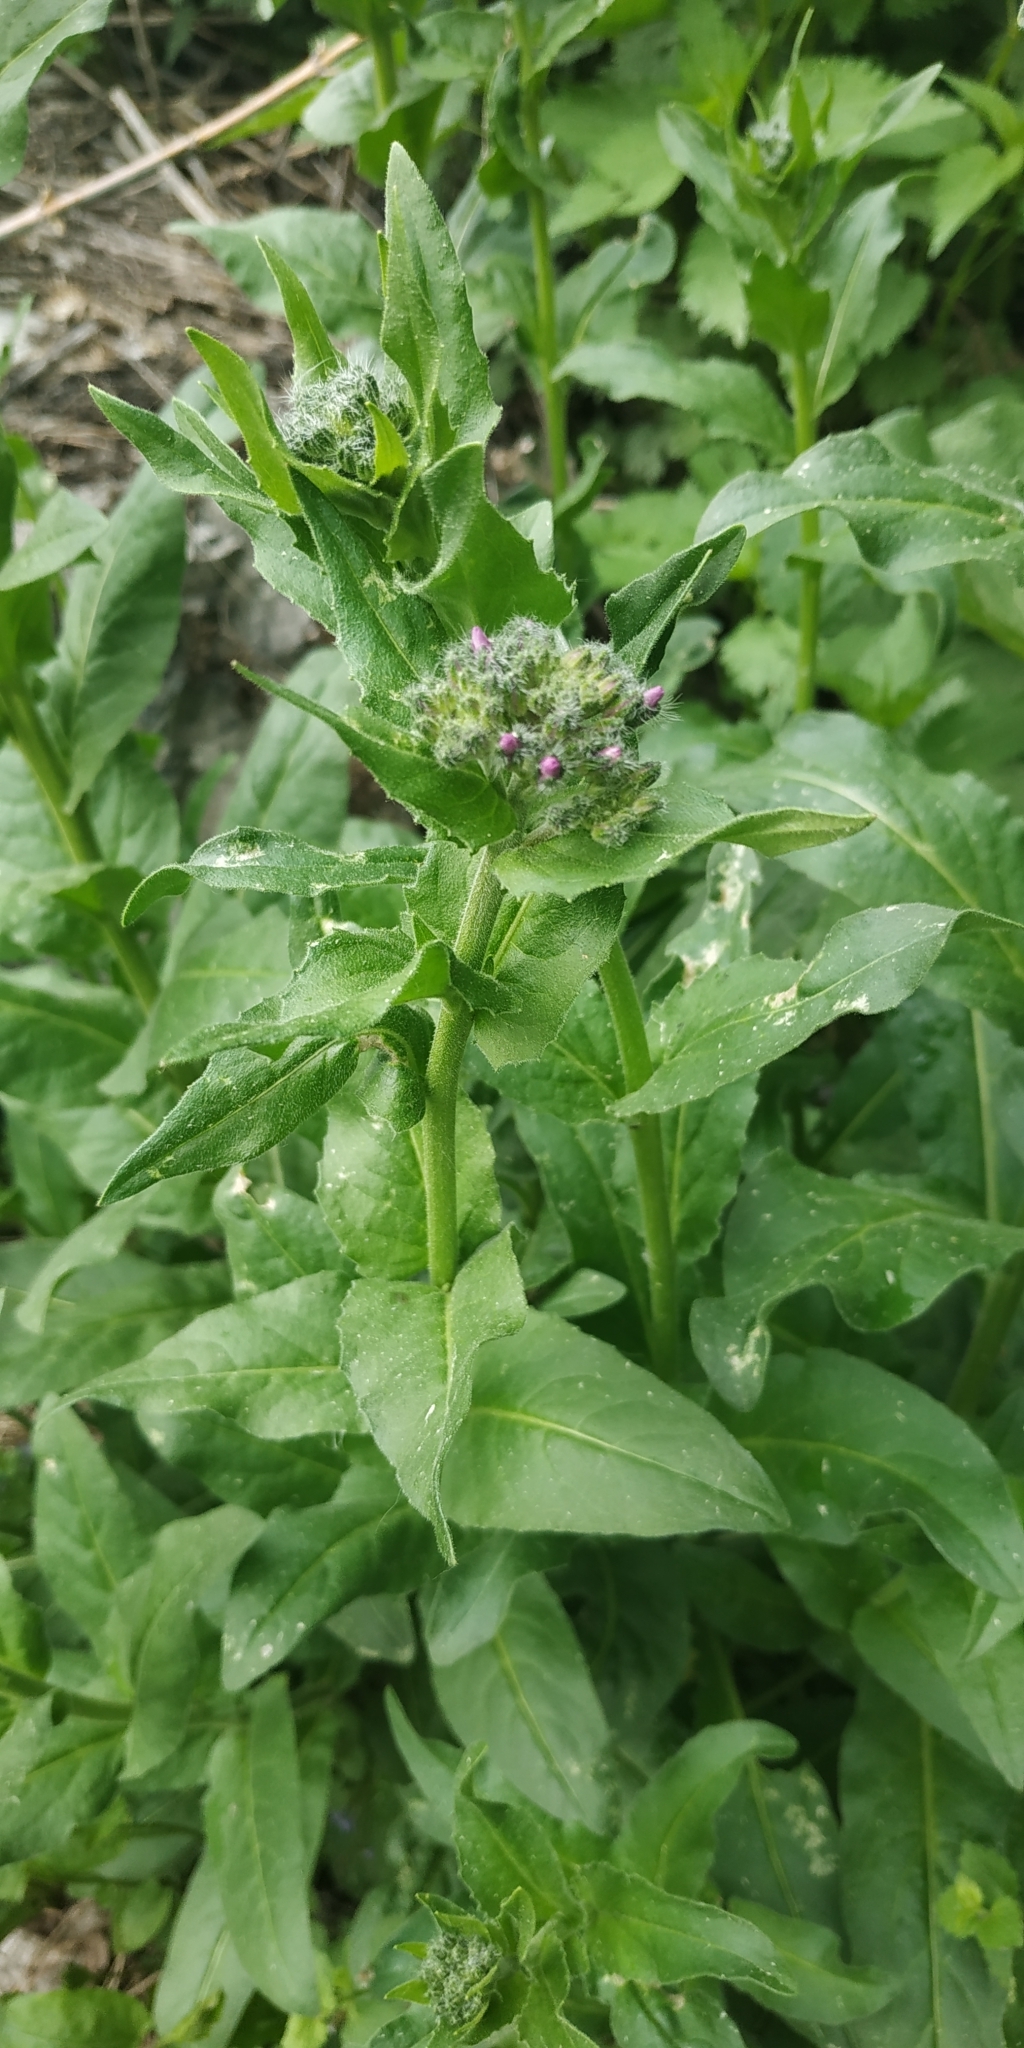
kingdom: Plantae
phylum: Tracheophyta
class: Magnoliopsida
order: Brassicales
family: Brassicaceae
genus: Hesperis
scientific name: Hesperis matronalis
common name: Dame's-violet
